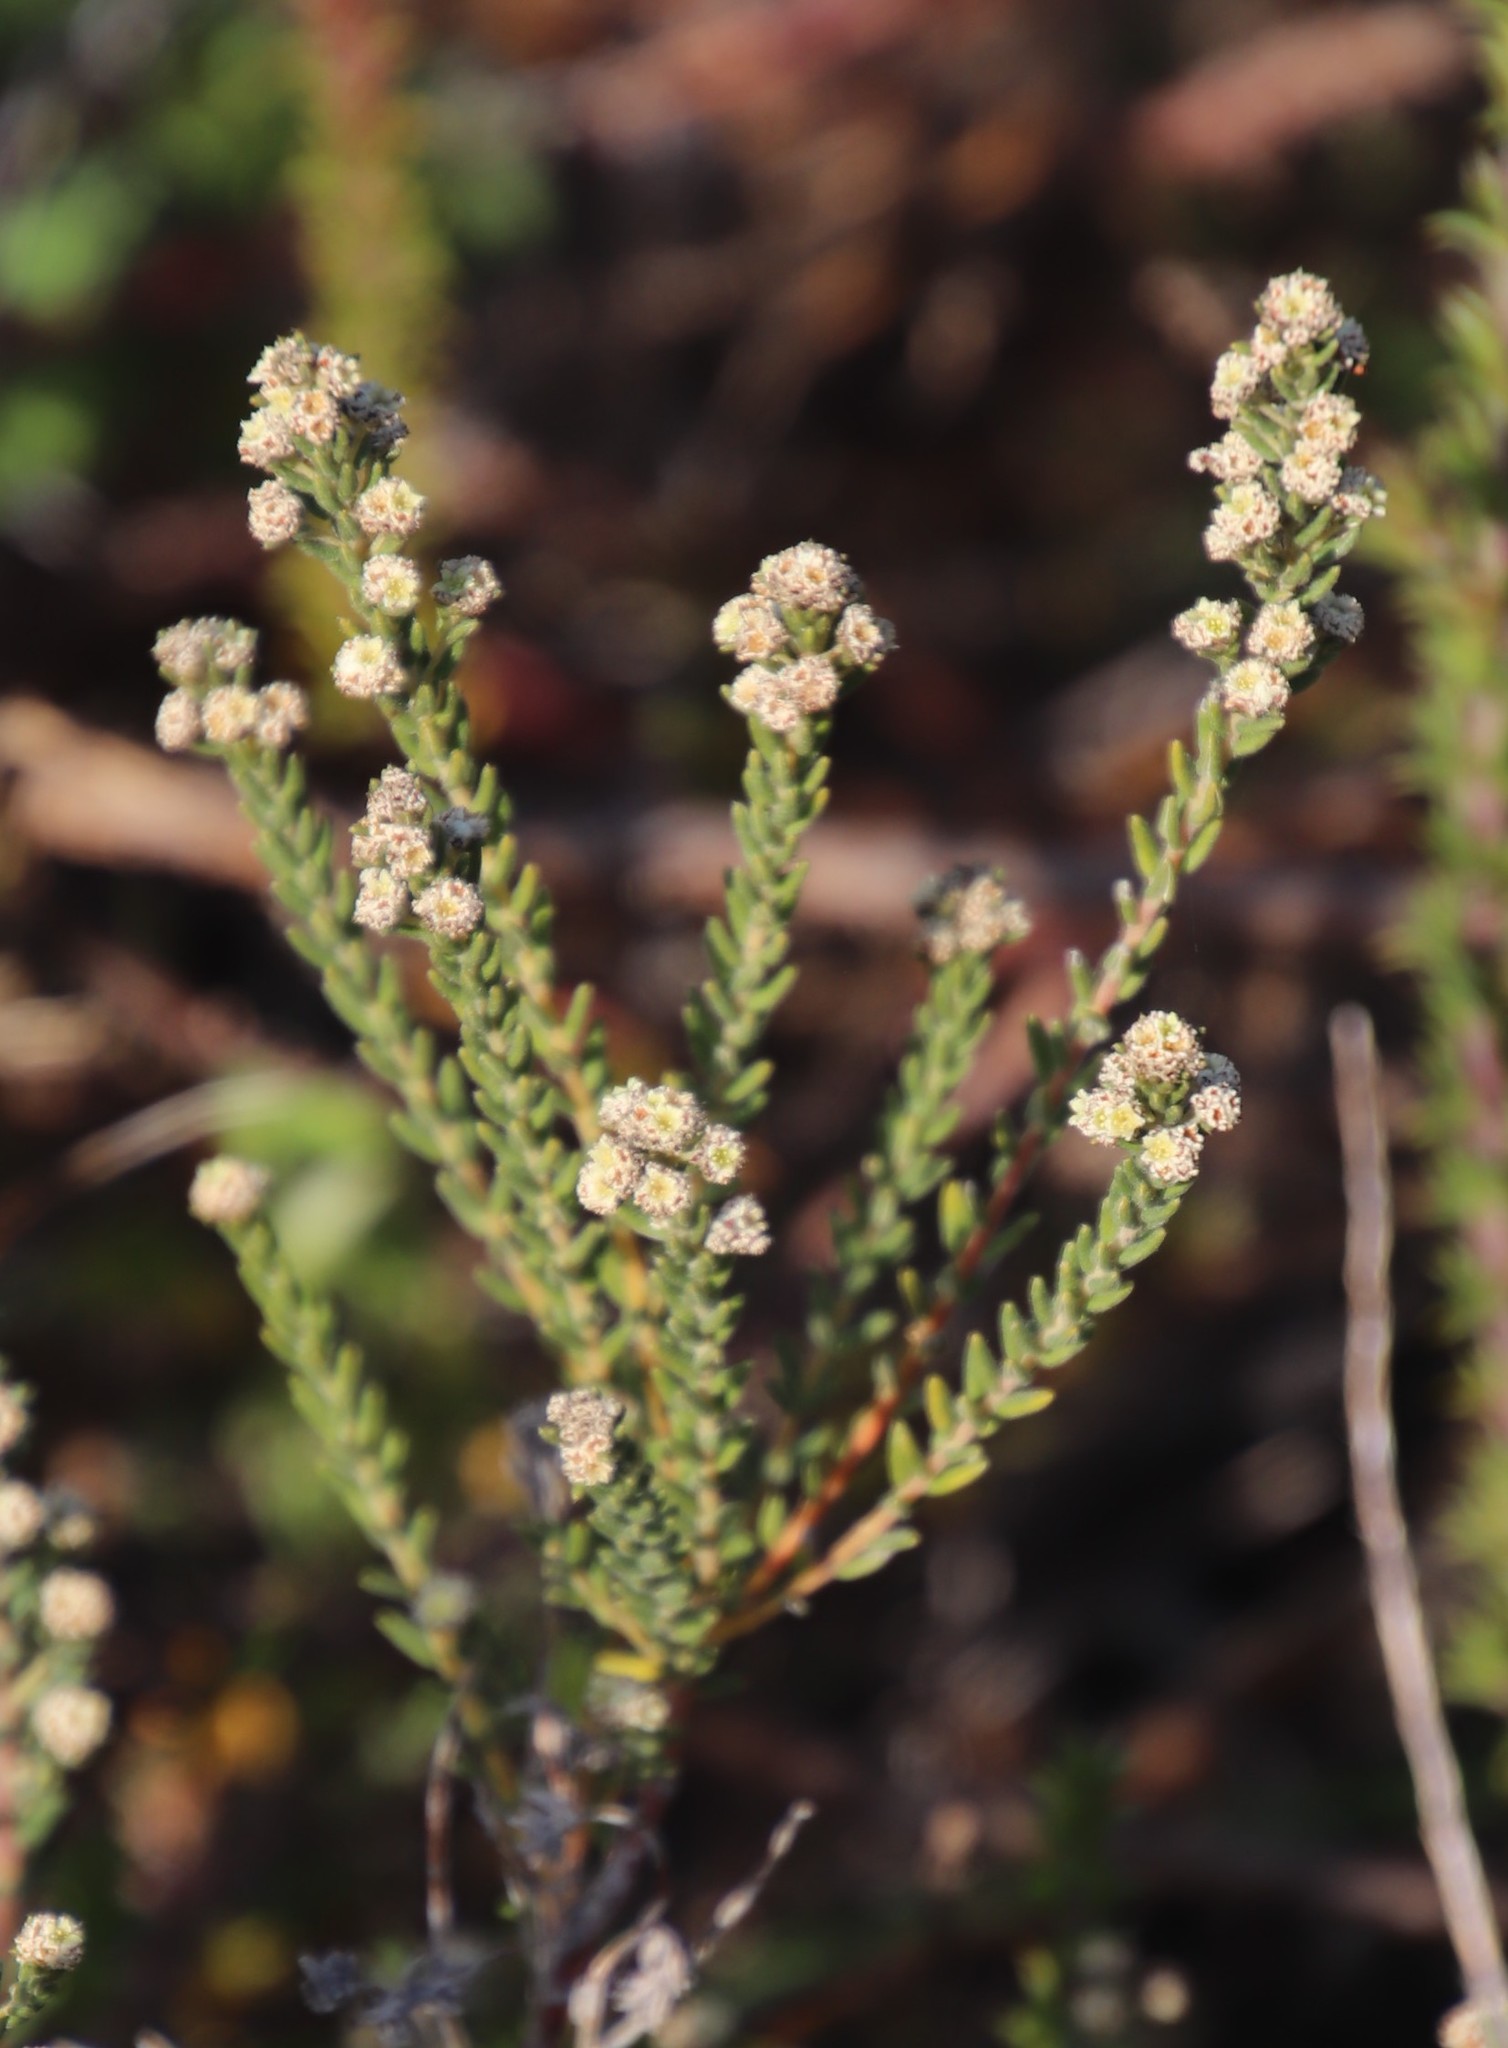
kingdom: Plantae
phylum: Tracheophyta
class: Magnoliopsida
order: Rosales
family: Rhamnaceae
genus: Phylica
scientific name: Phylica parviflora
